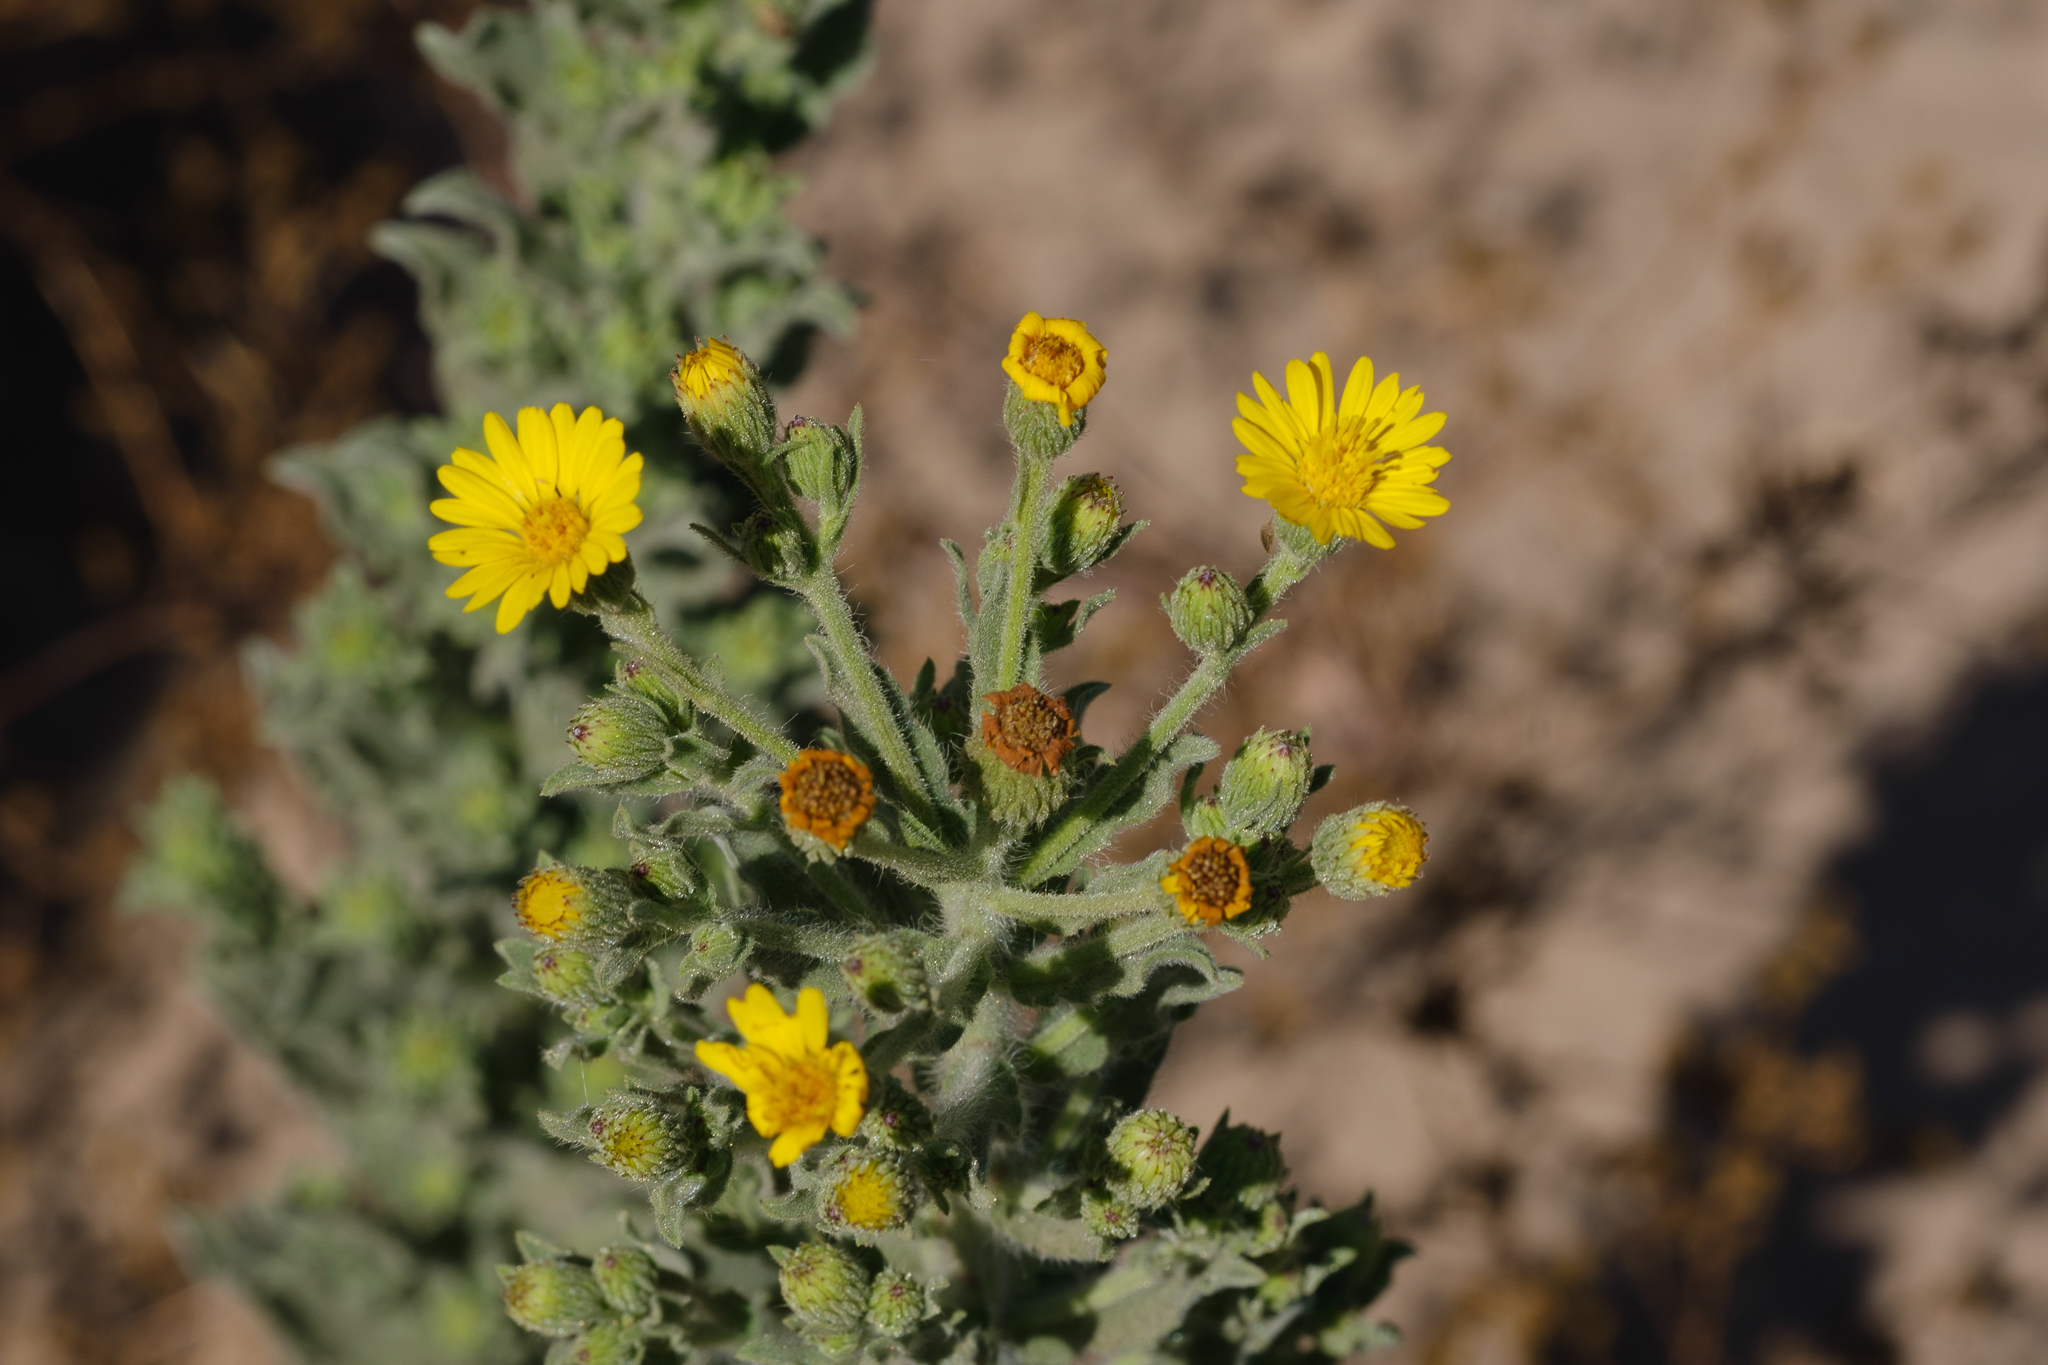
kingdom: Plantae
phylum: Tracheophyta
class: Magnoliopsida
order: Asterales
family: Asteraceae
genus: Heterotheca
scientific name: Heterotheca grandiflora
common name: Telegraphweed
